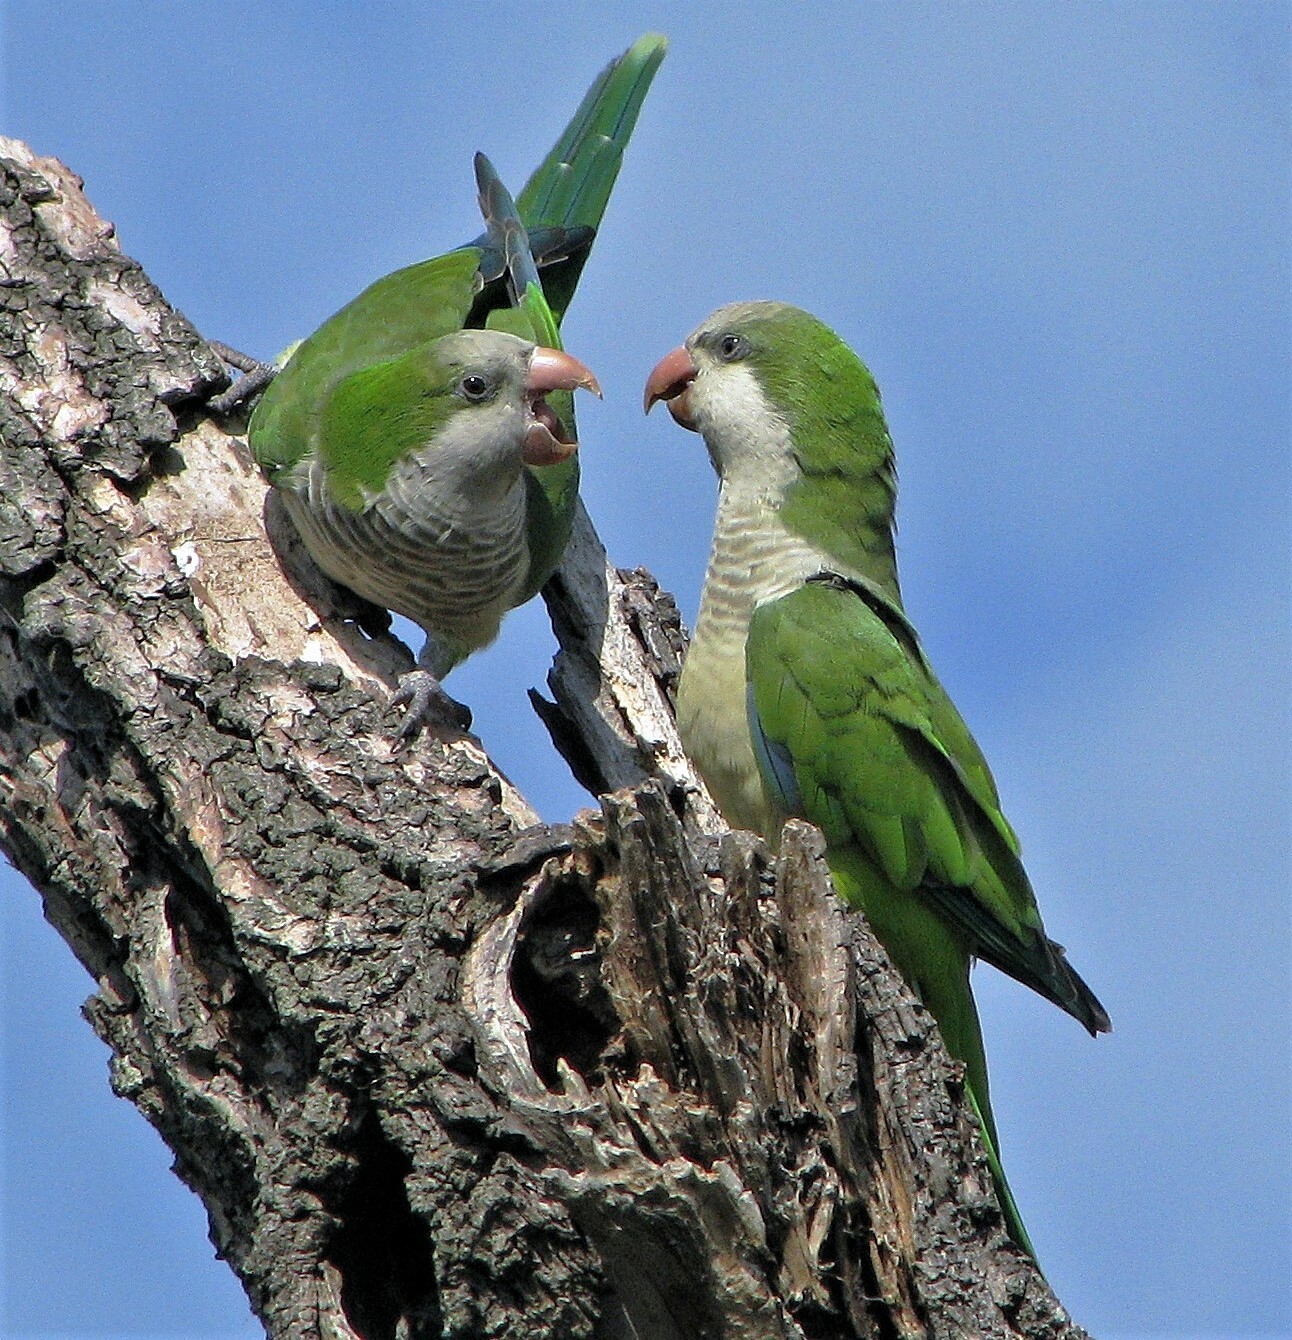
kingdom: Animalia
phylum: Chordata
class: Aves
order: Psittaciformes
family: Psittacidae
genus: Myiopsitta
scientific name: Myiopsitta monachus
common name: Monk parakeet
